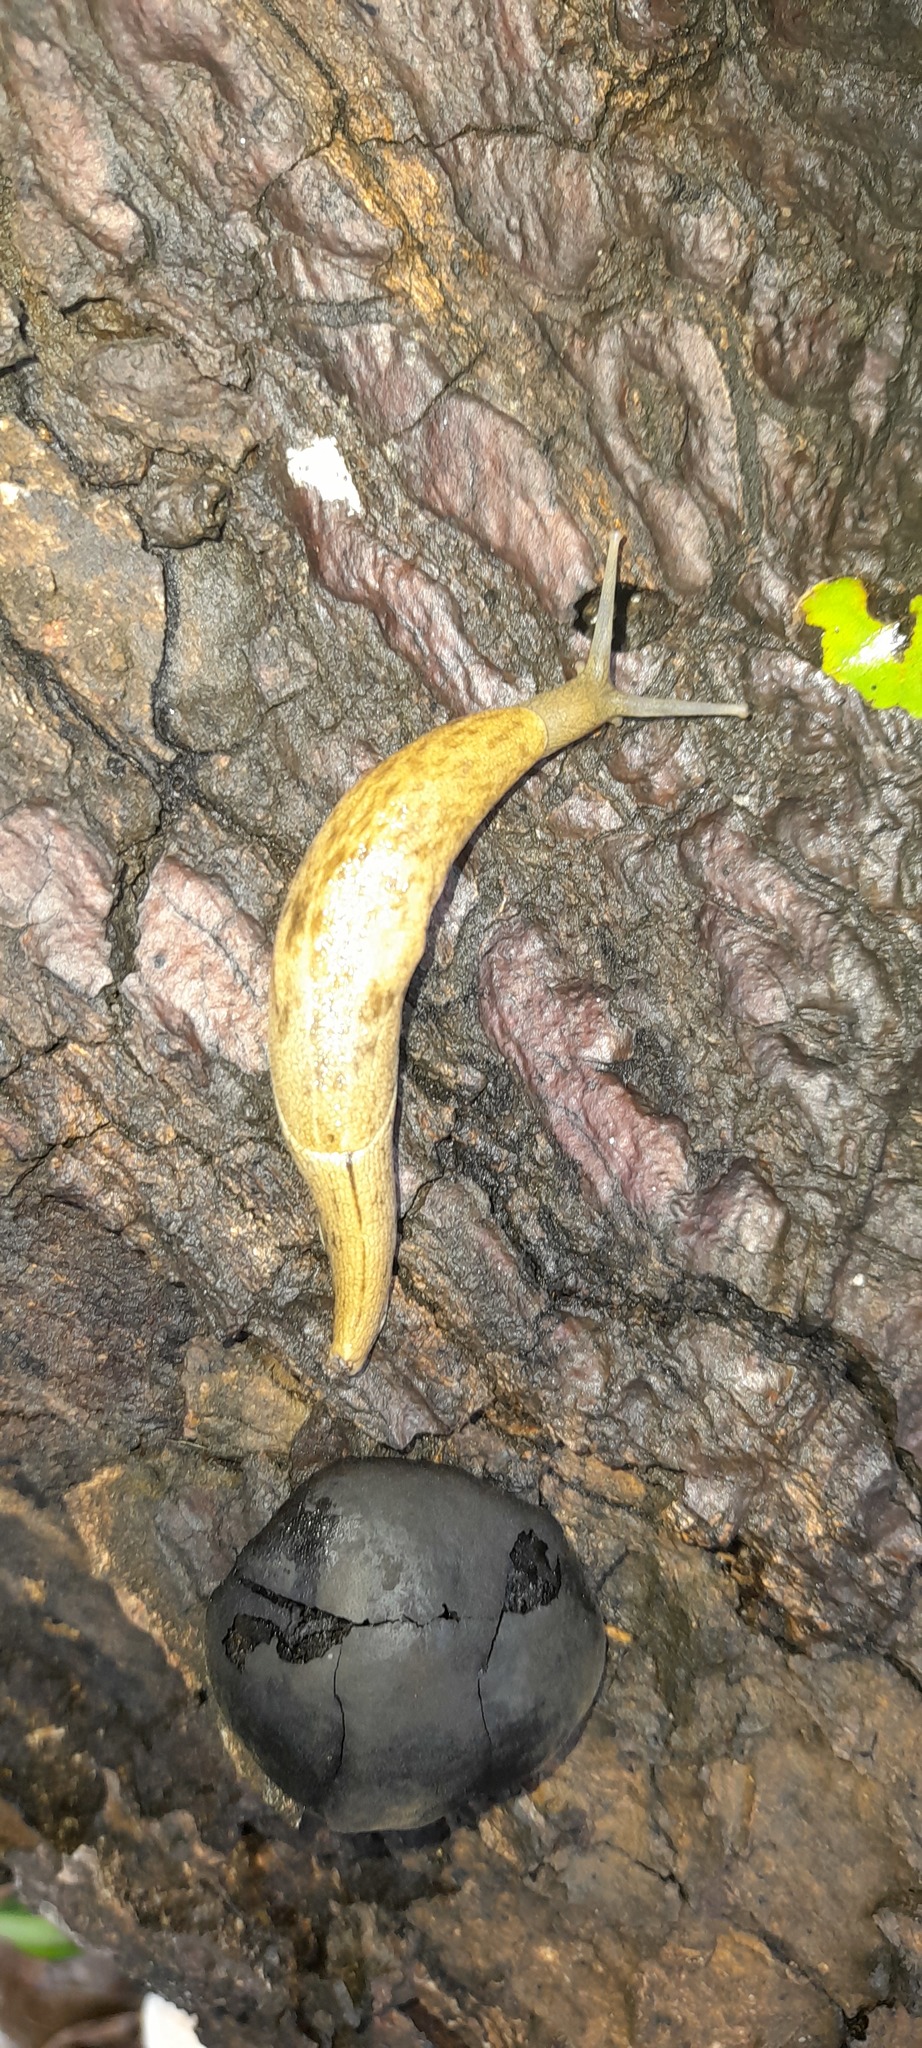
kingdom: Animalia
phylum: Mollusca
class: Gastropoda
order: Stylommatophora
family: Ariophantidae
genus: Mariaella
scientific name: Mariaella dussumieri
